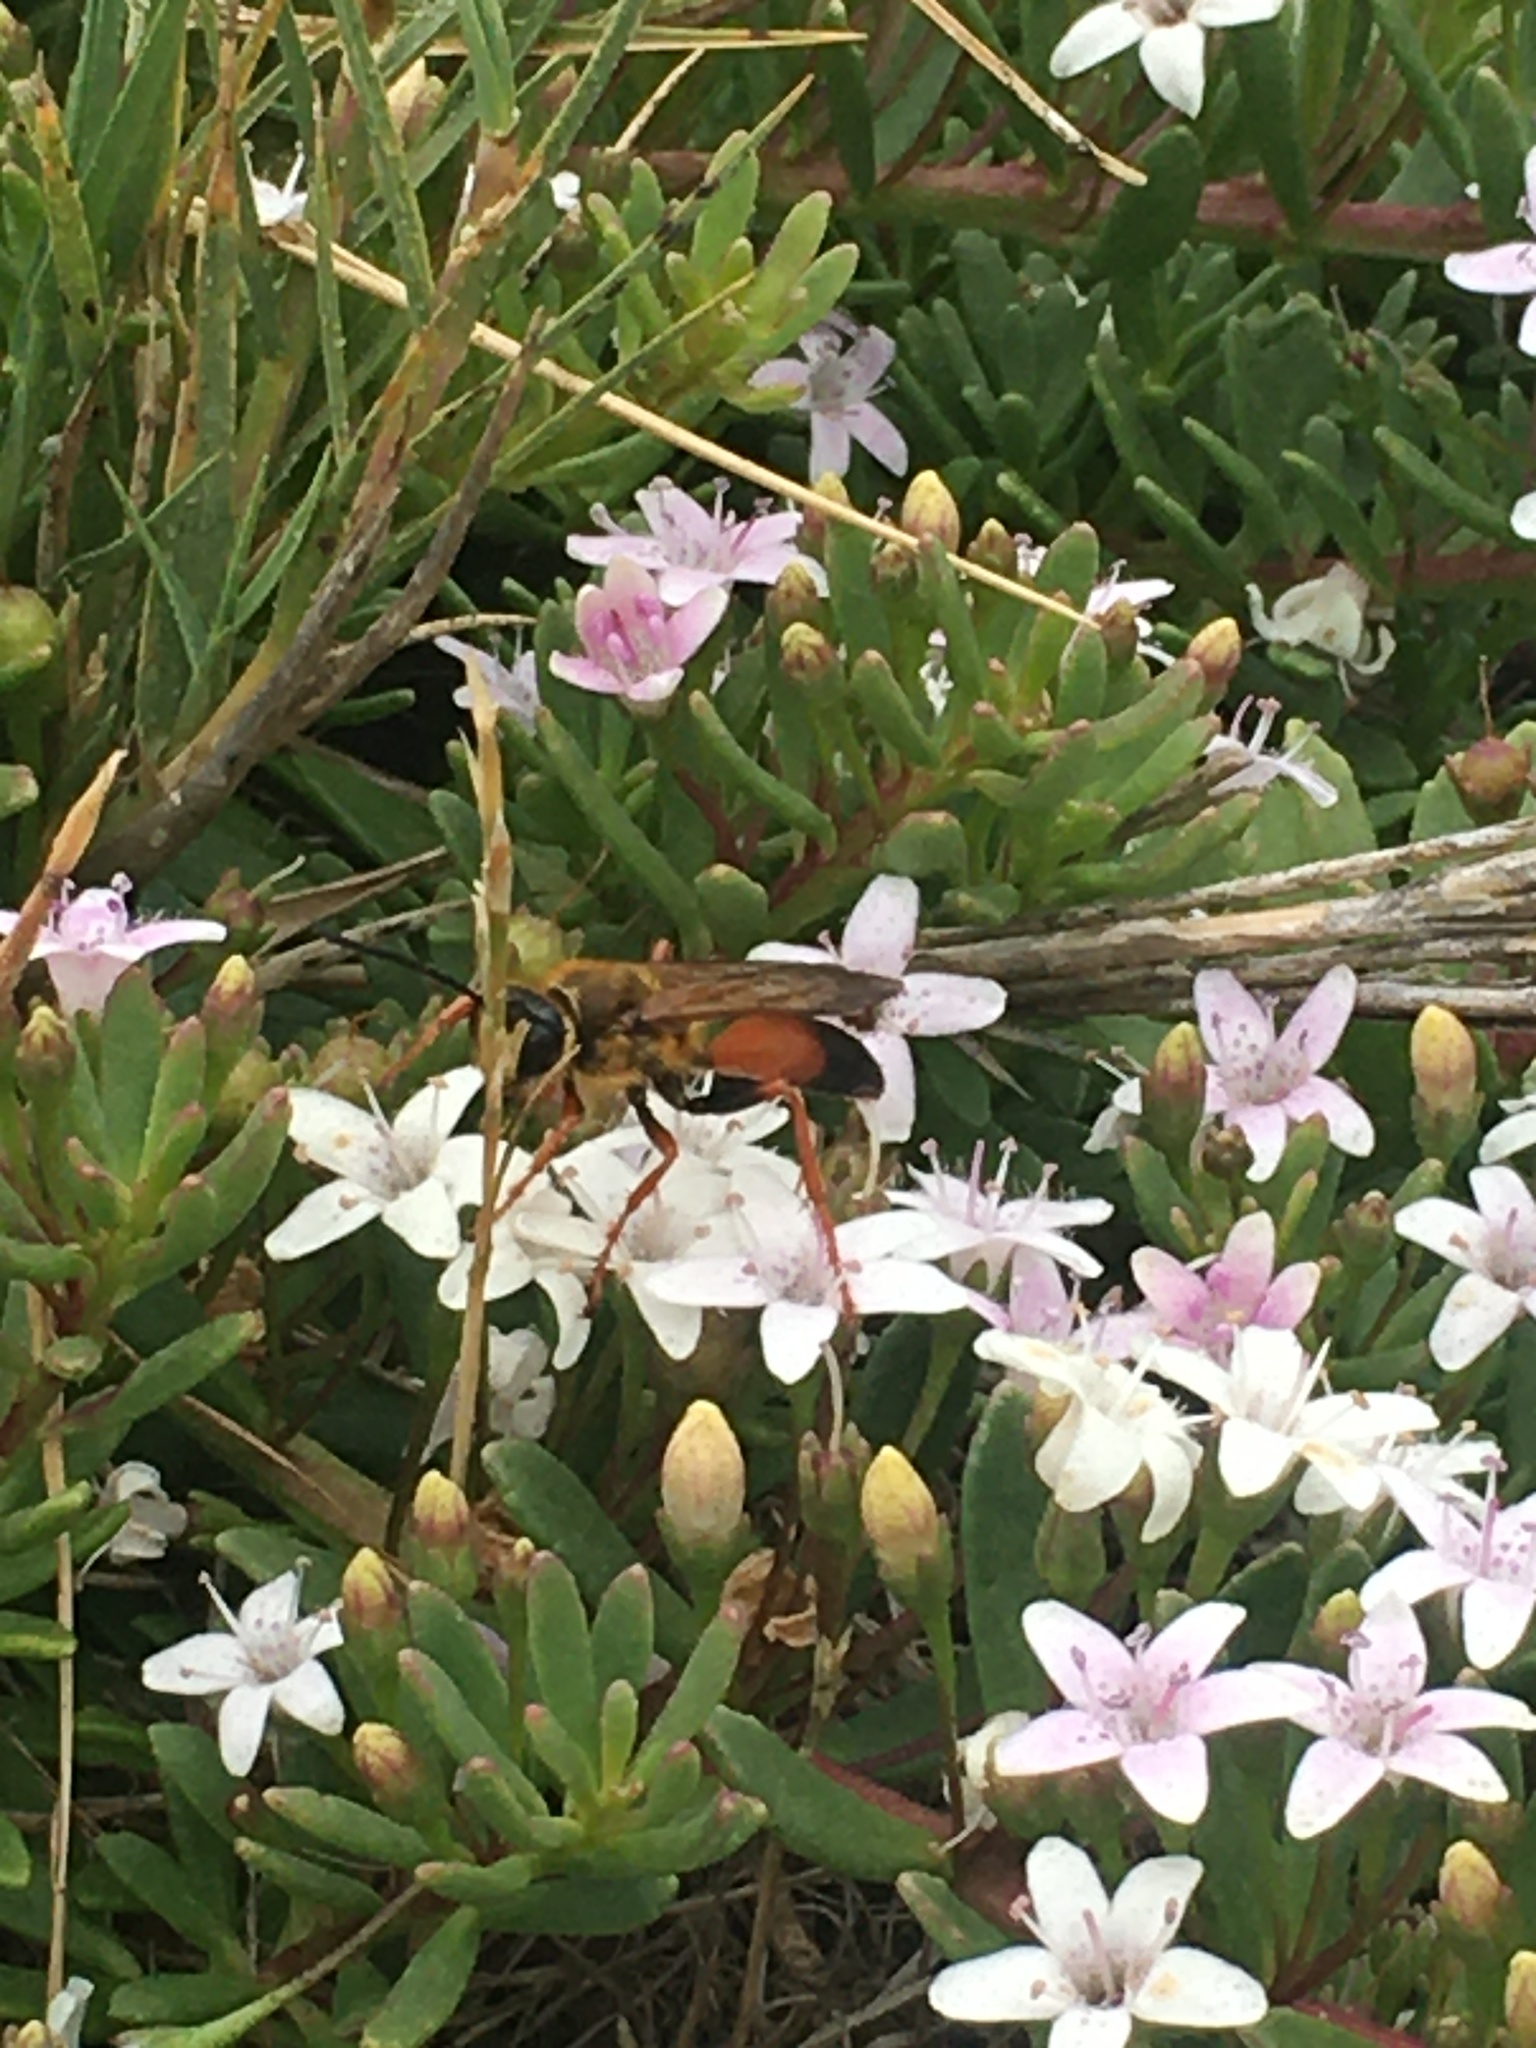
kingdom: Animalia
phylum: Arthropoda
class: Insecta
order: Hymenoptera
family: Sphecidae
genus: Sphex
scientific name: Sphex ichneumoneus
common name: Great golden digger wasp
